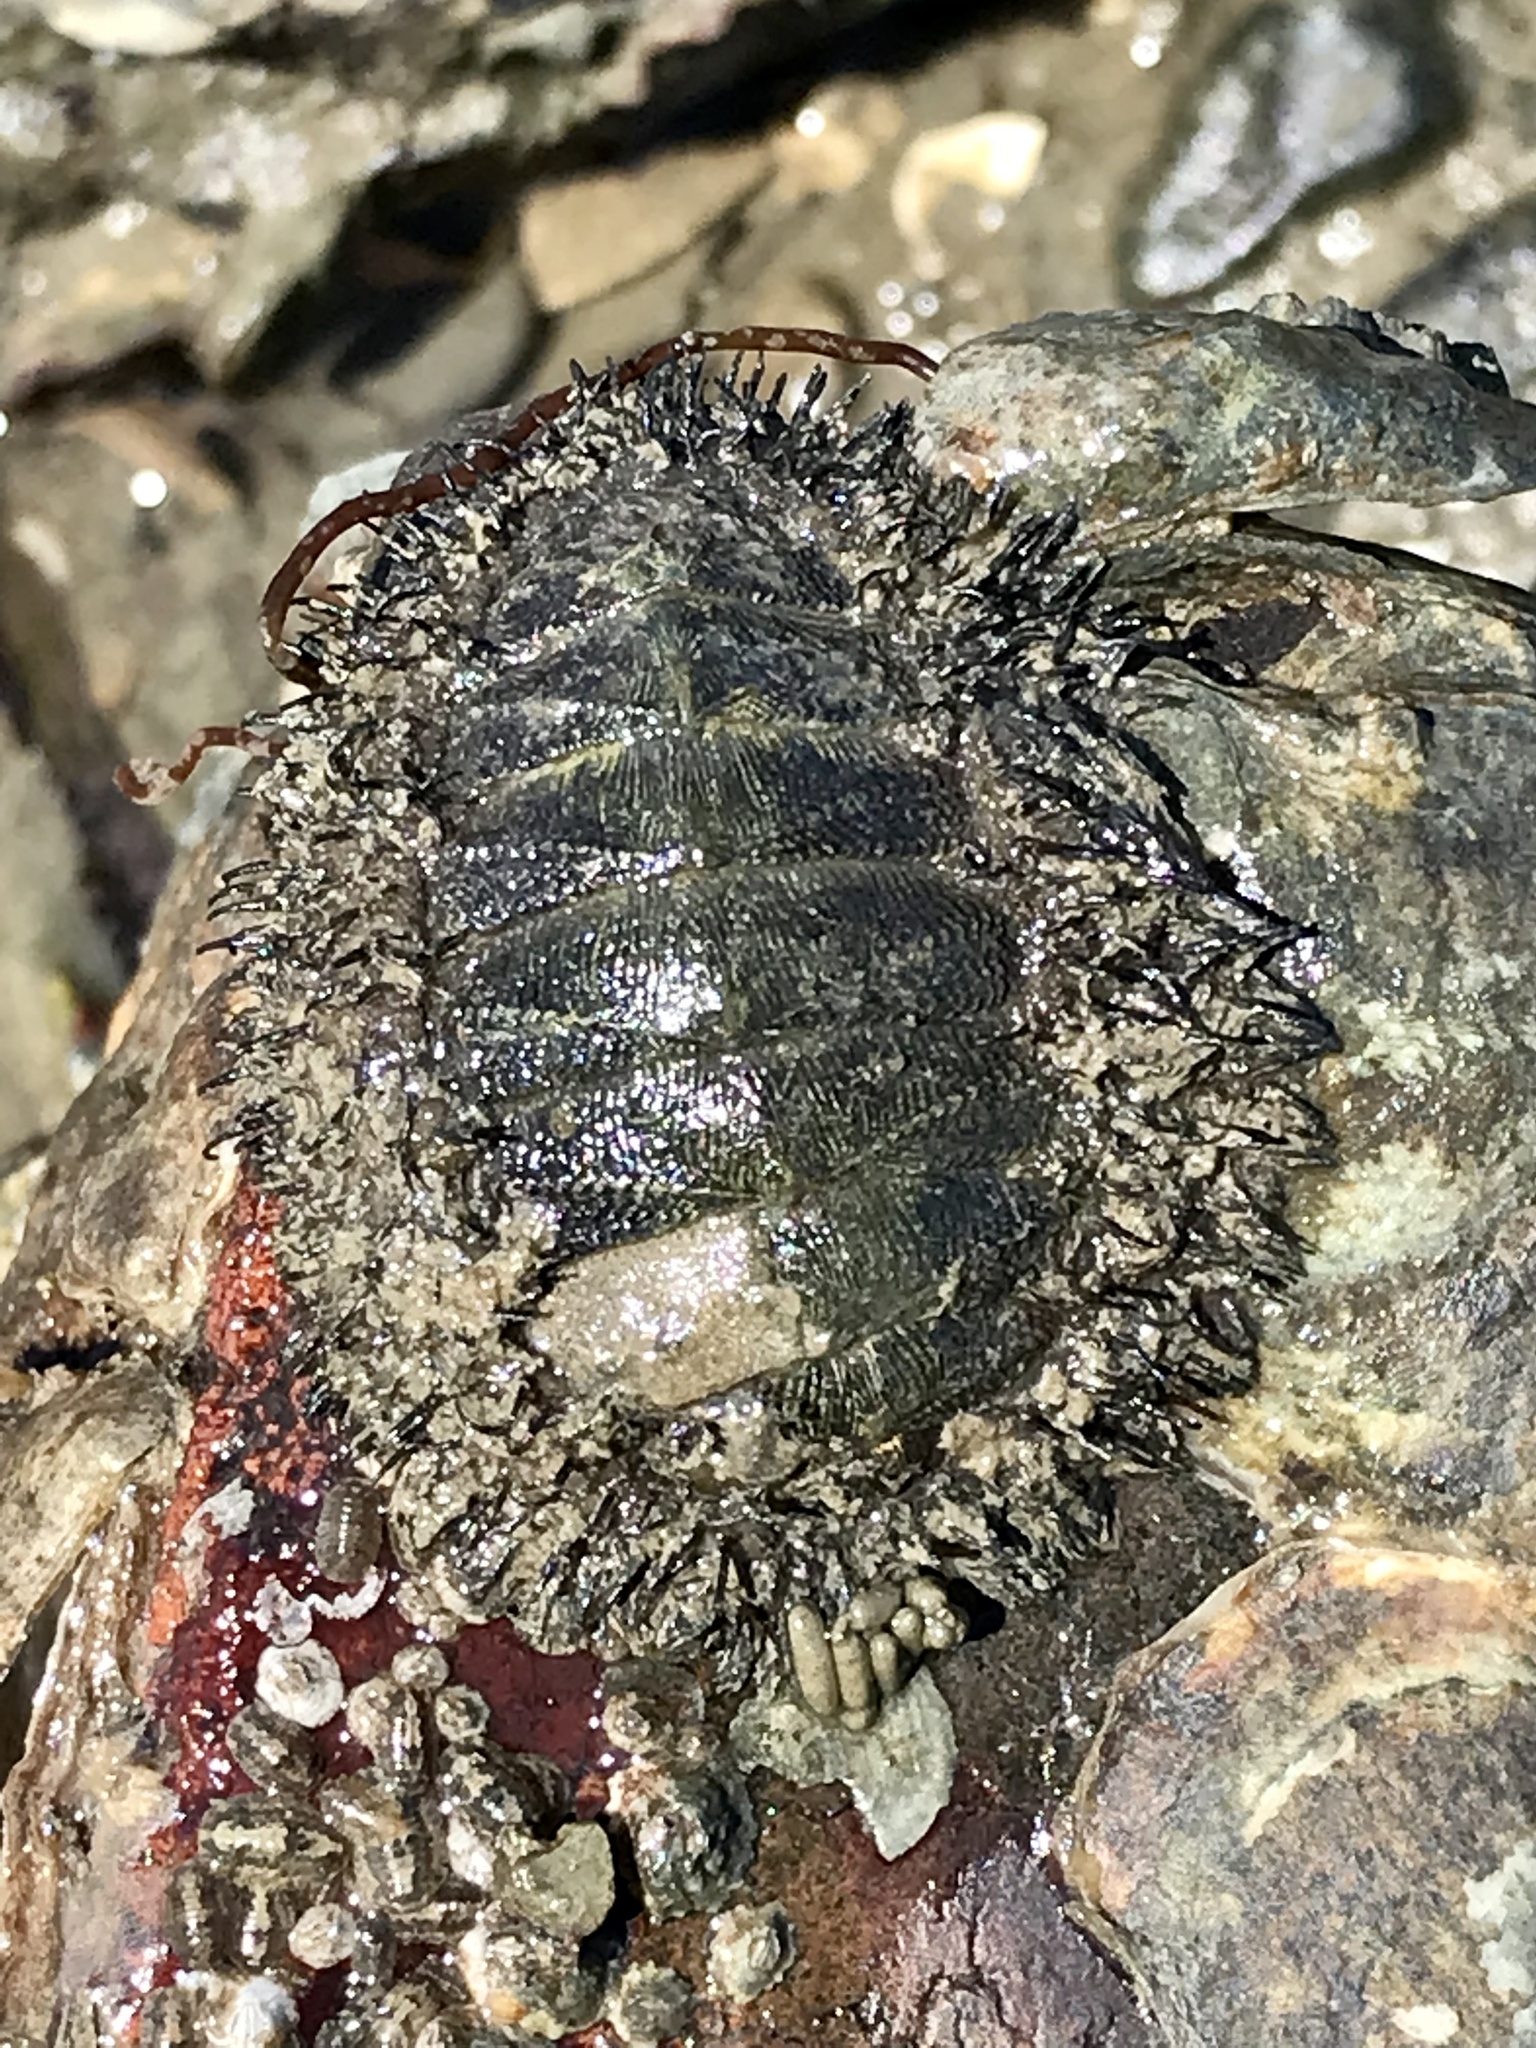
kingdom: Animalia
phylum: Mollusca
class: Polyplacophora
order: Chitonida
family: Mopaliidae
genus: Mopalia
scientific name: Mopalia muscosa
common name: Mossy chiton
